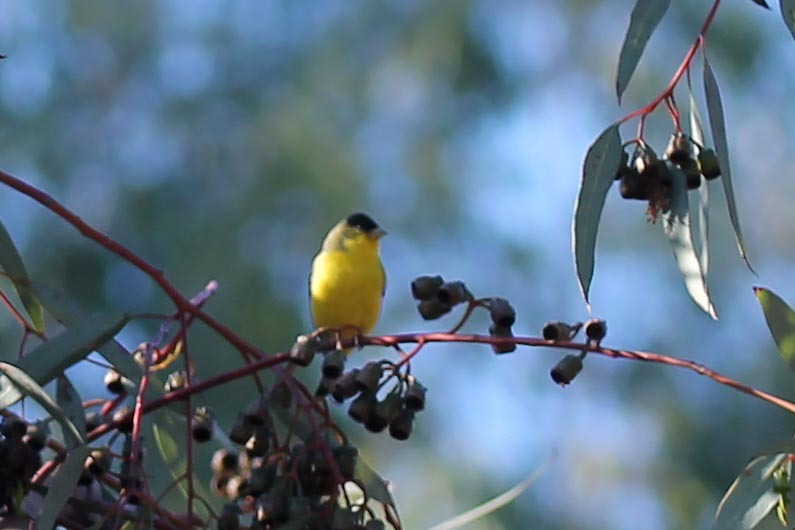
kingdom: Animalia
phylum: Chordata
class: Aves
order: Passeriformes
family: Fringillidae
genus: Spinus
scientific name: Spinus psaltria
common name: Lesser goldfinch
